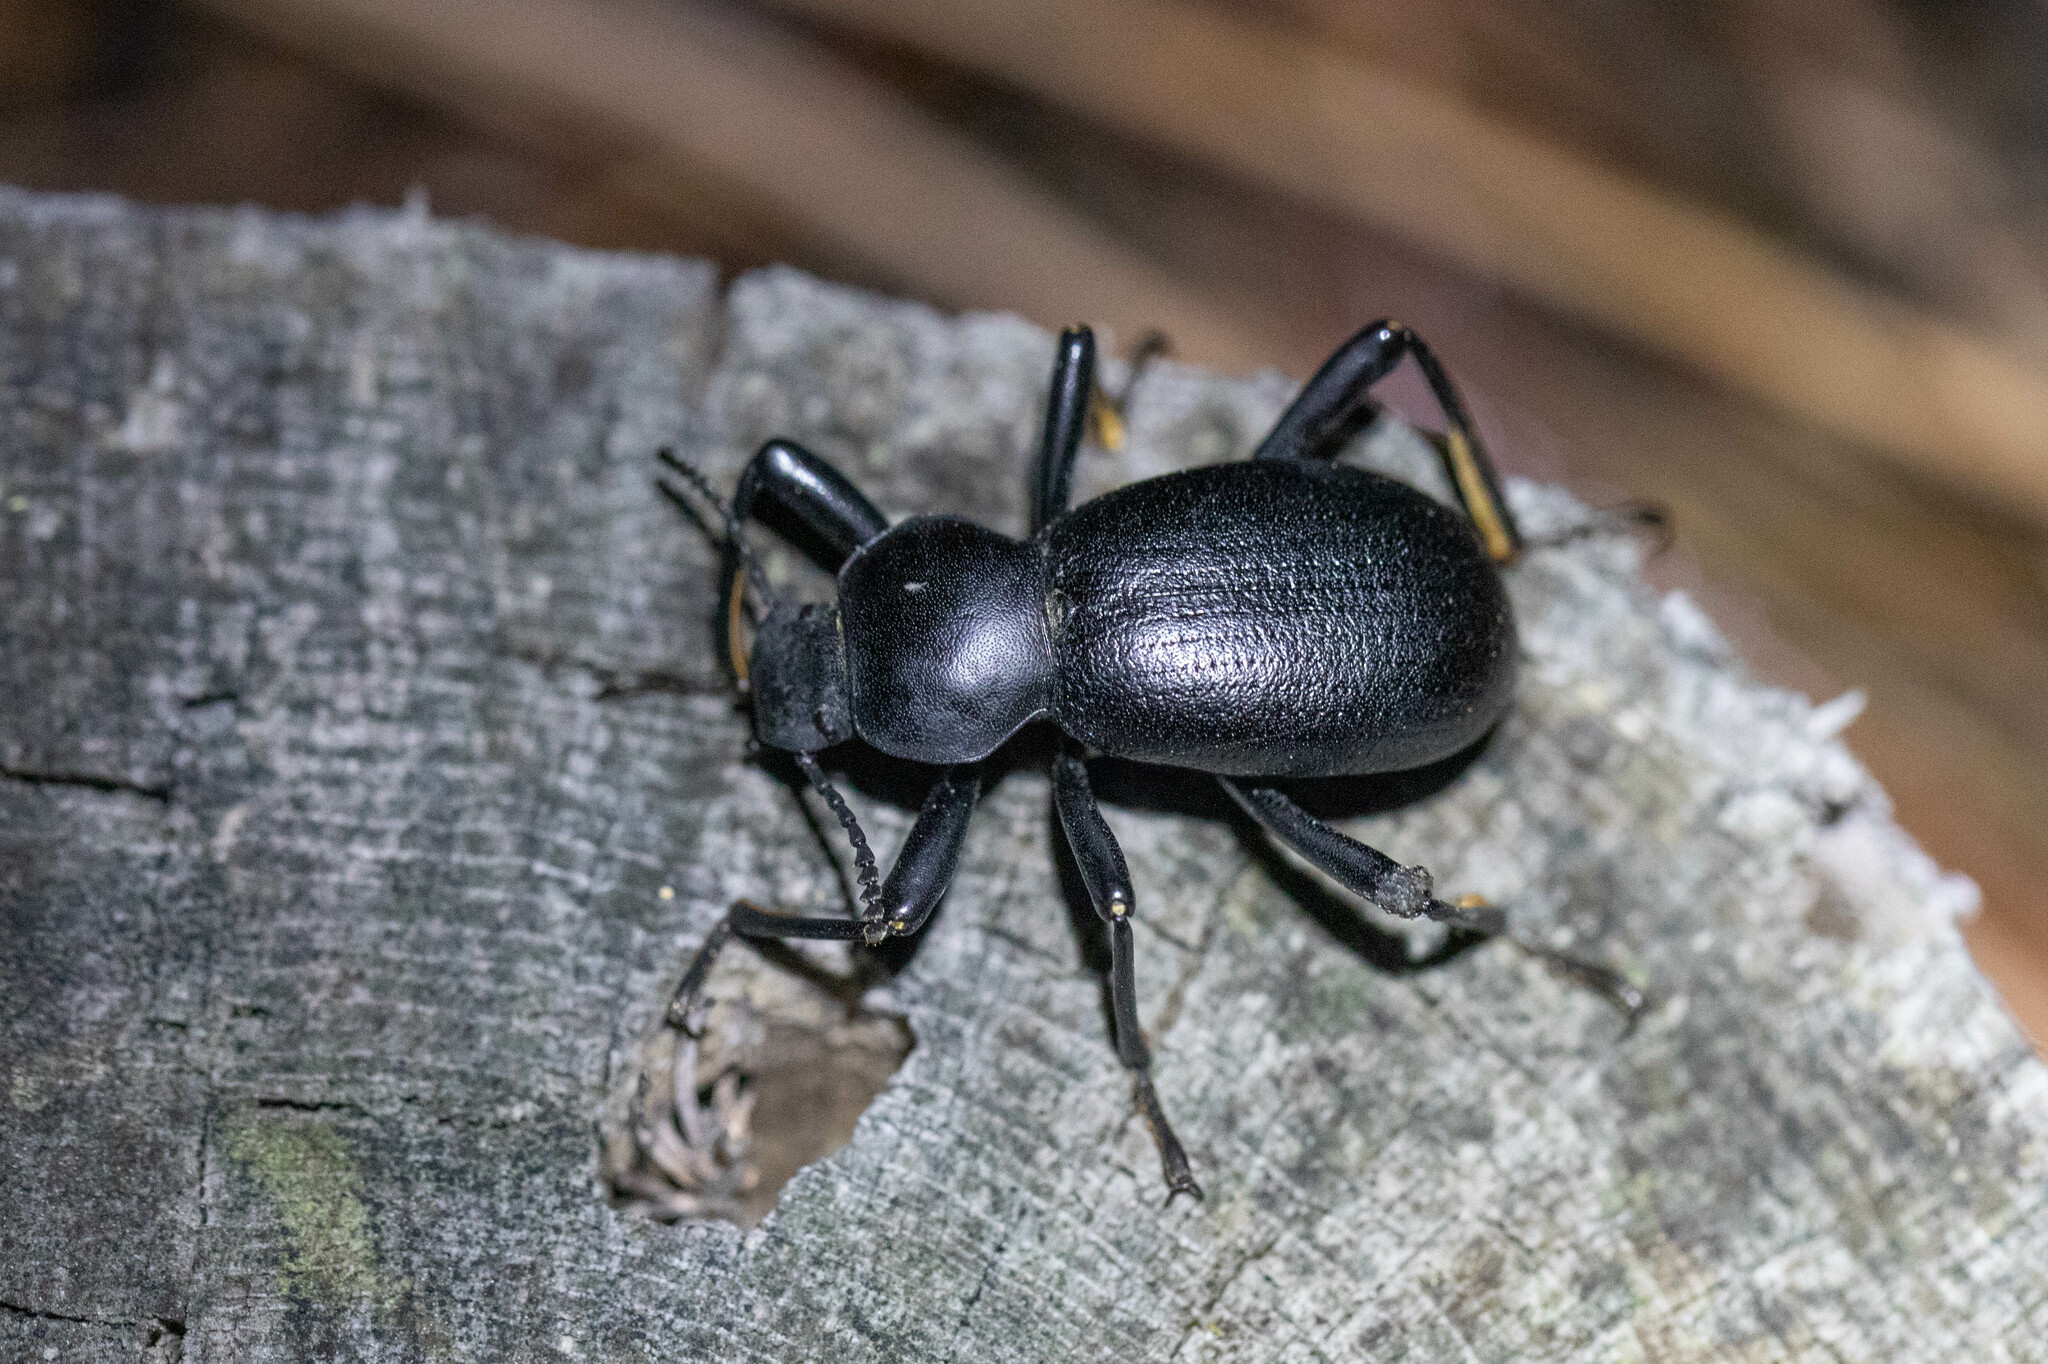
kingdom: Animalia
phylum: Arthropoda
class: Insecta
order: Coleoptera
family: Tenebrionidae
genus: Coelocnemis
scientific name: Coelocnemis dilaticollis
